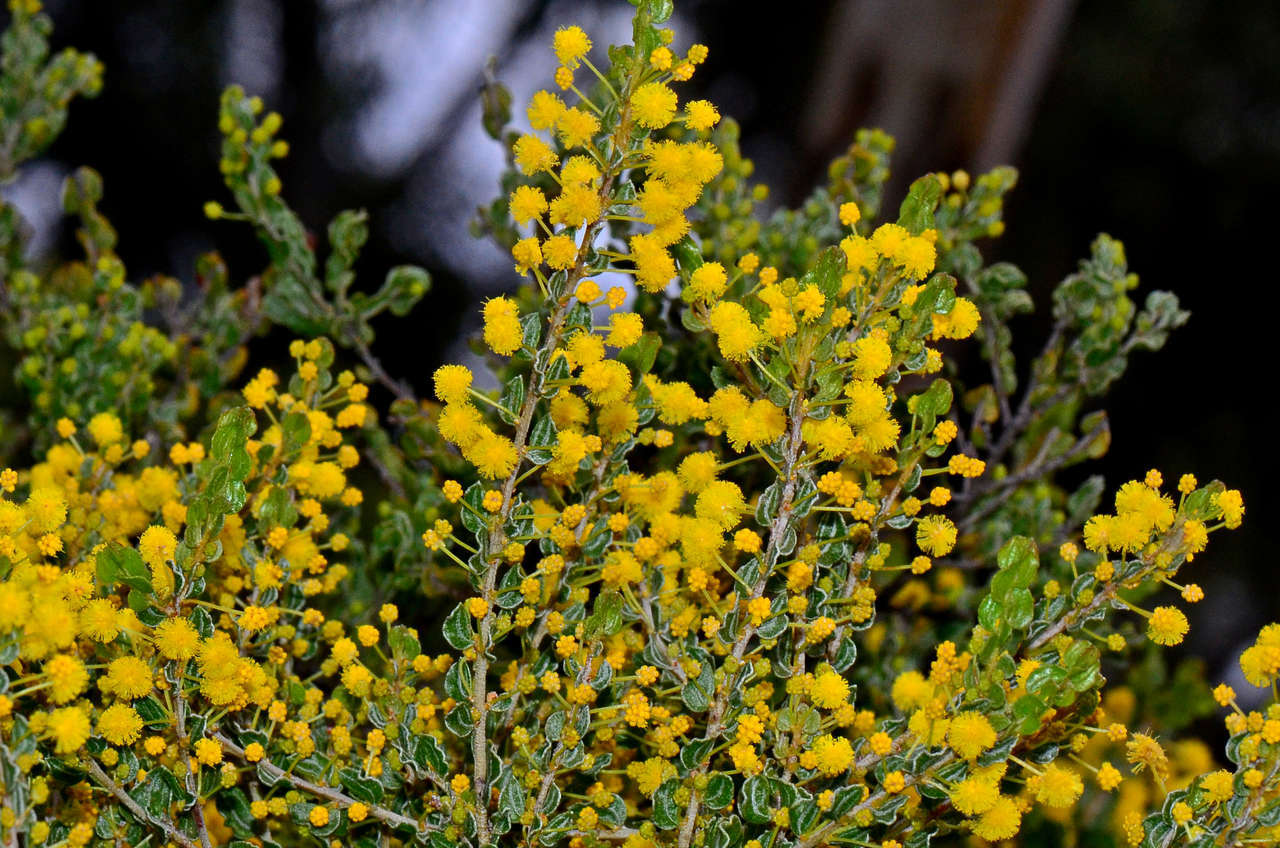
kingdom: Plantae
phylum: Tracheophyta
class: Magnoliopsida
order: Fabales
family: Fabaceae
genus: Acacia
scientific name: Acacia glandulicarpa
